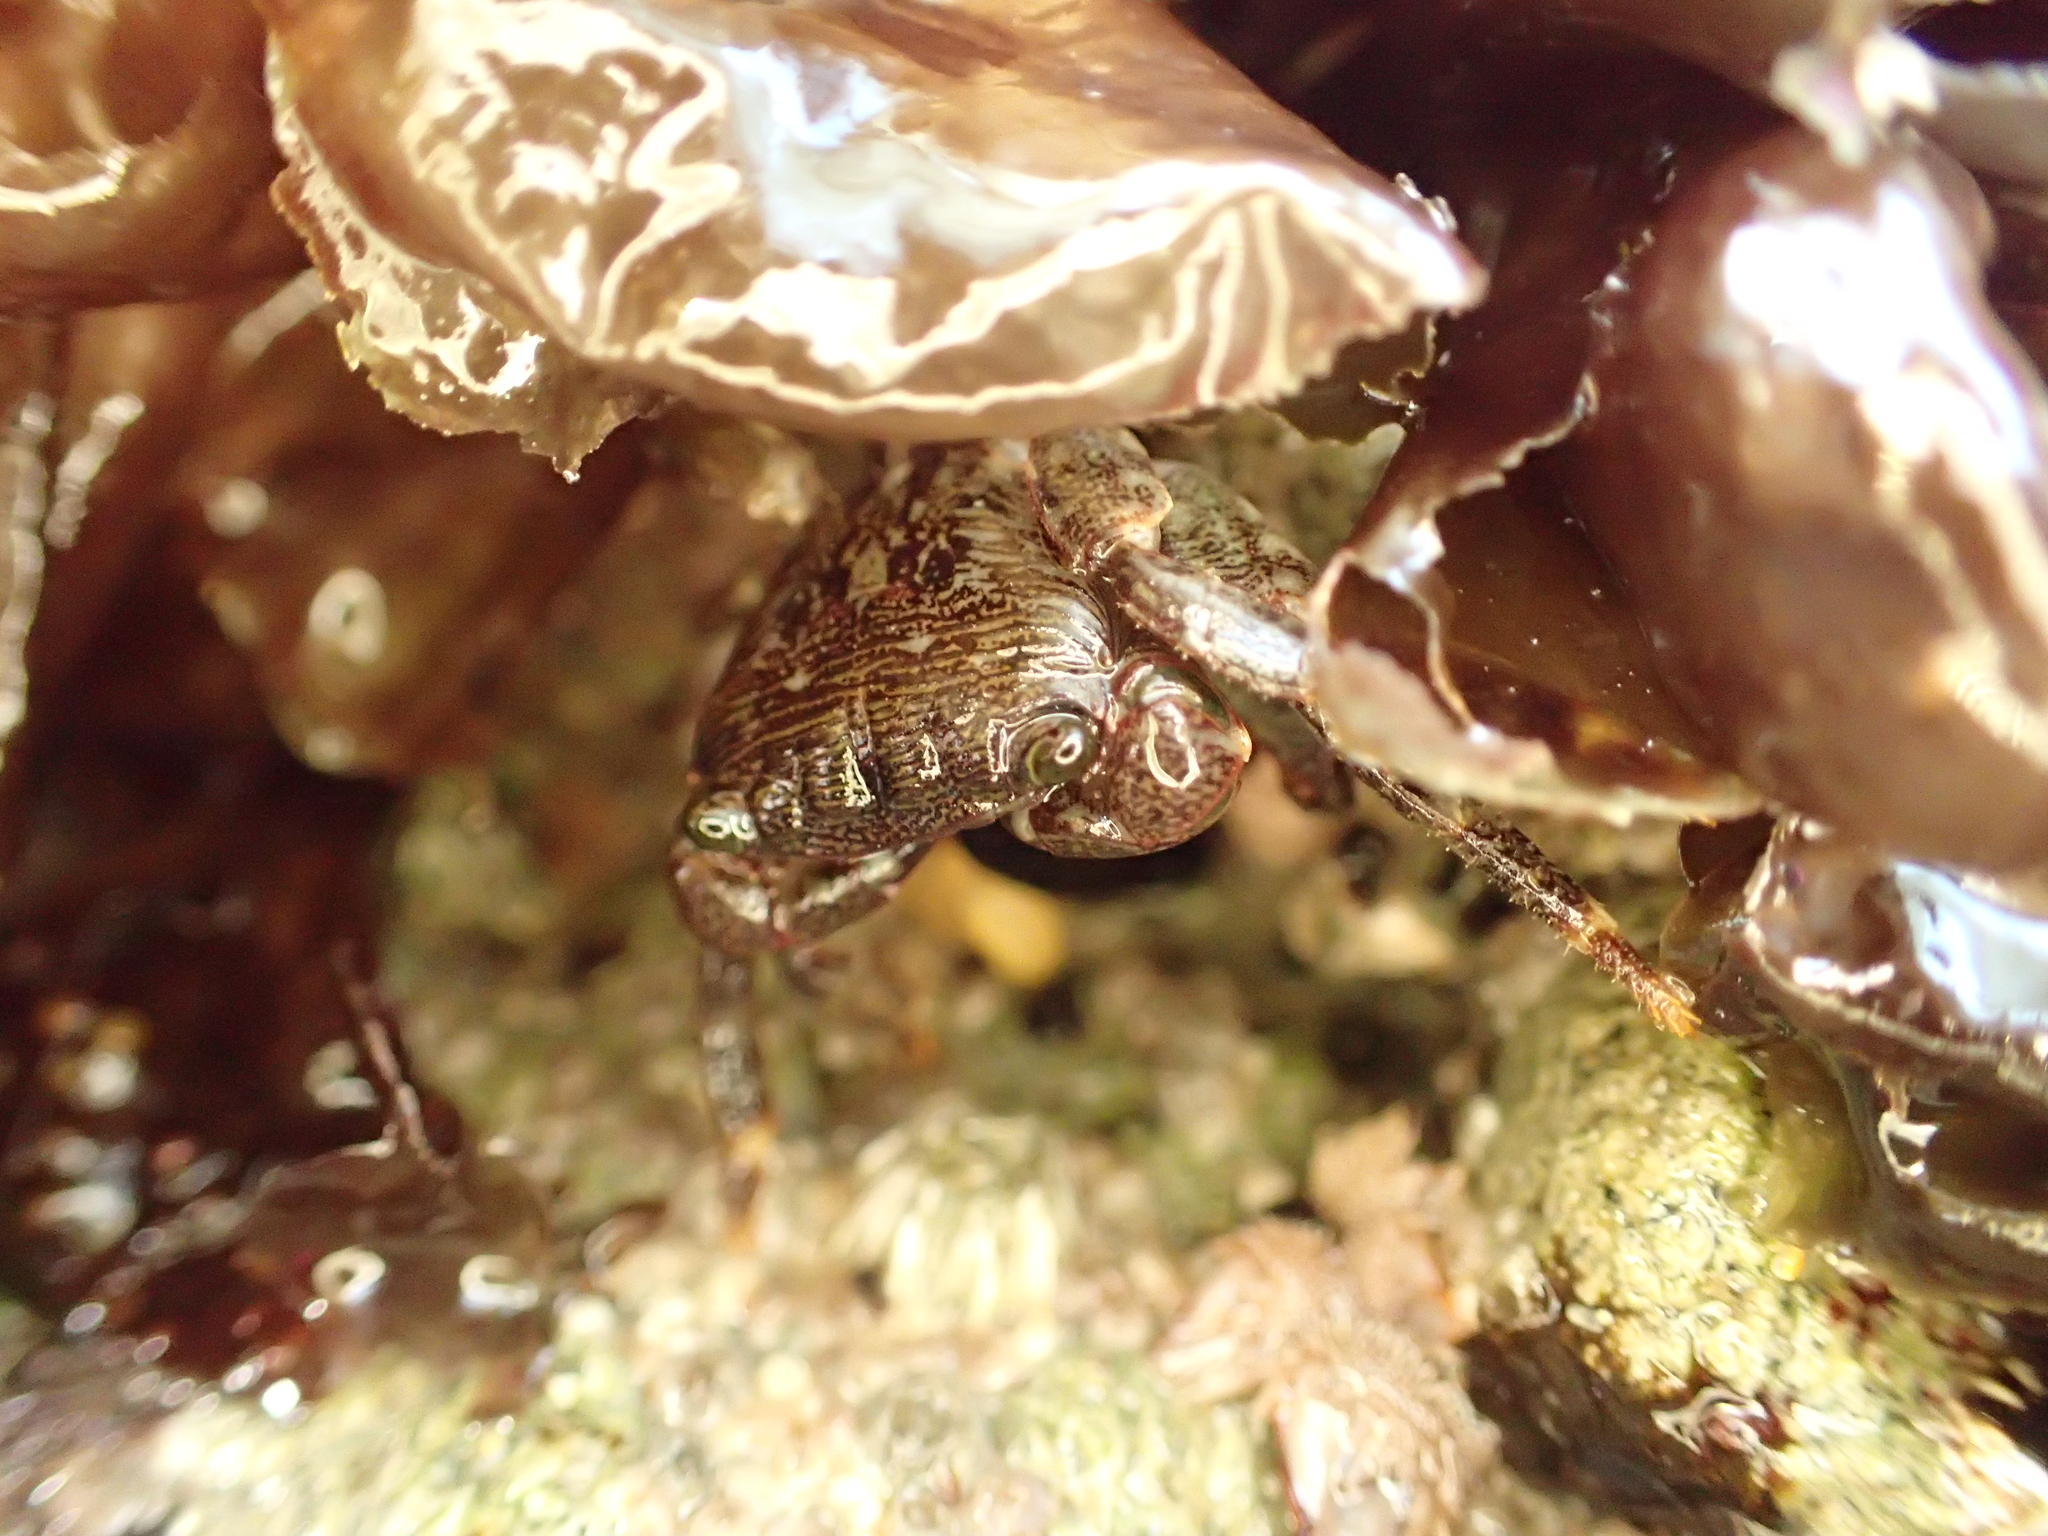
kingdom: Animalia
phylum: Arthropoda
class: Malacostraca
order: Decapoda
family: Grapsidae
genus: Pachygrapsus
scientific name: Pachygrapsus crassipes
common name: Striped shore crab
